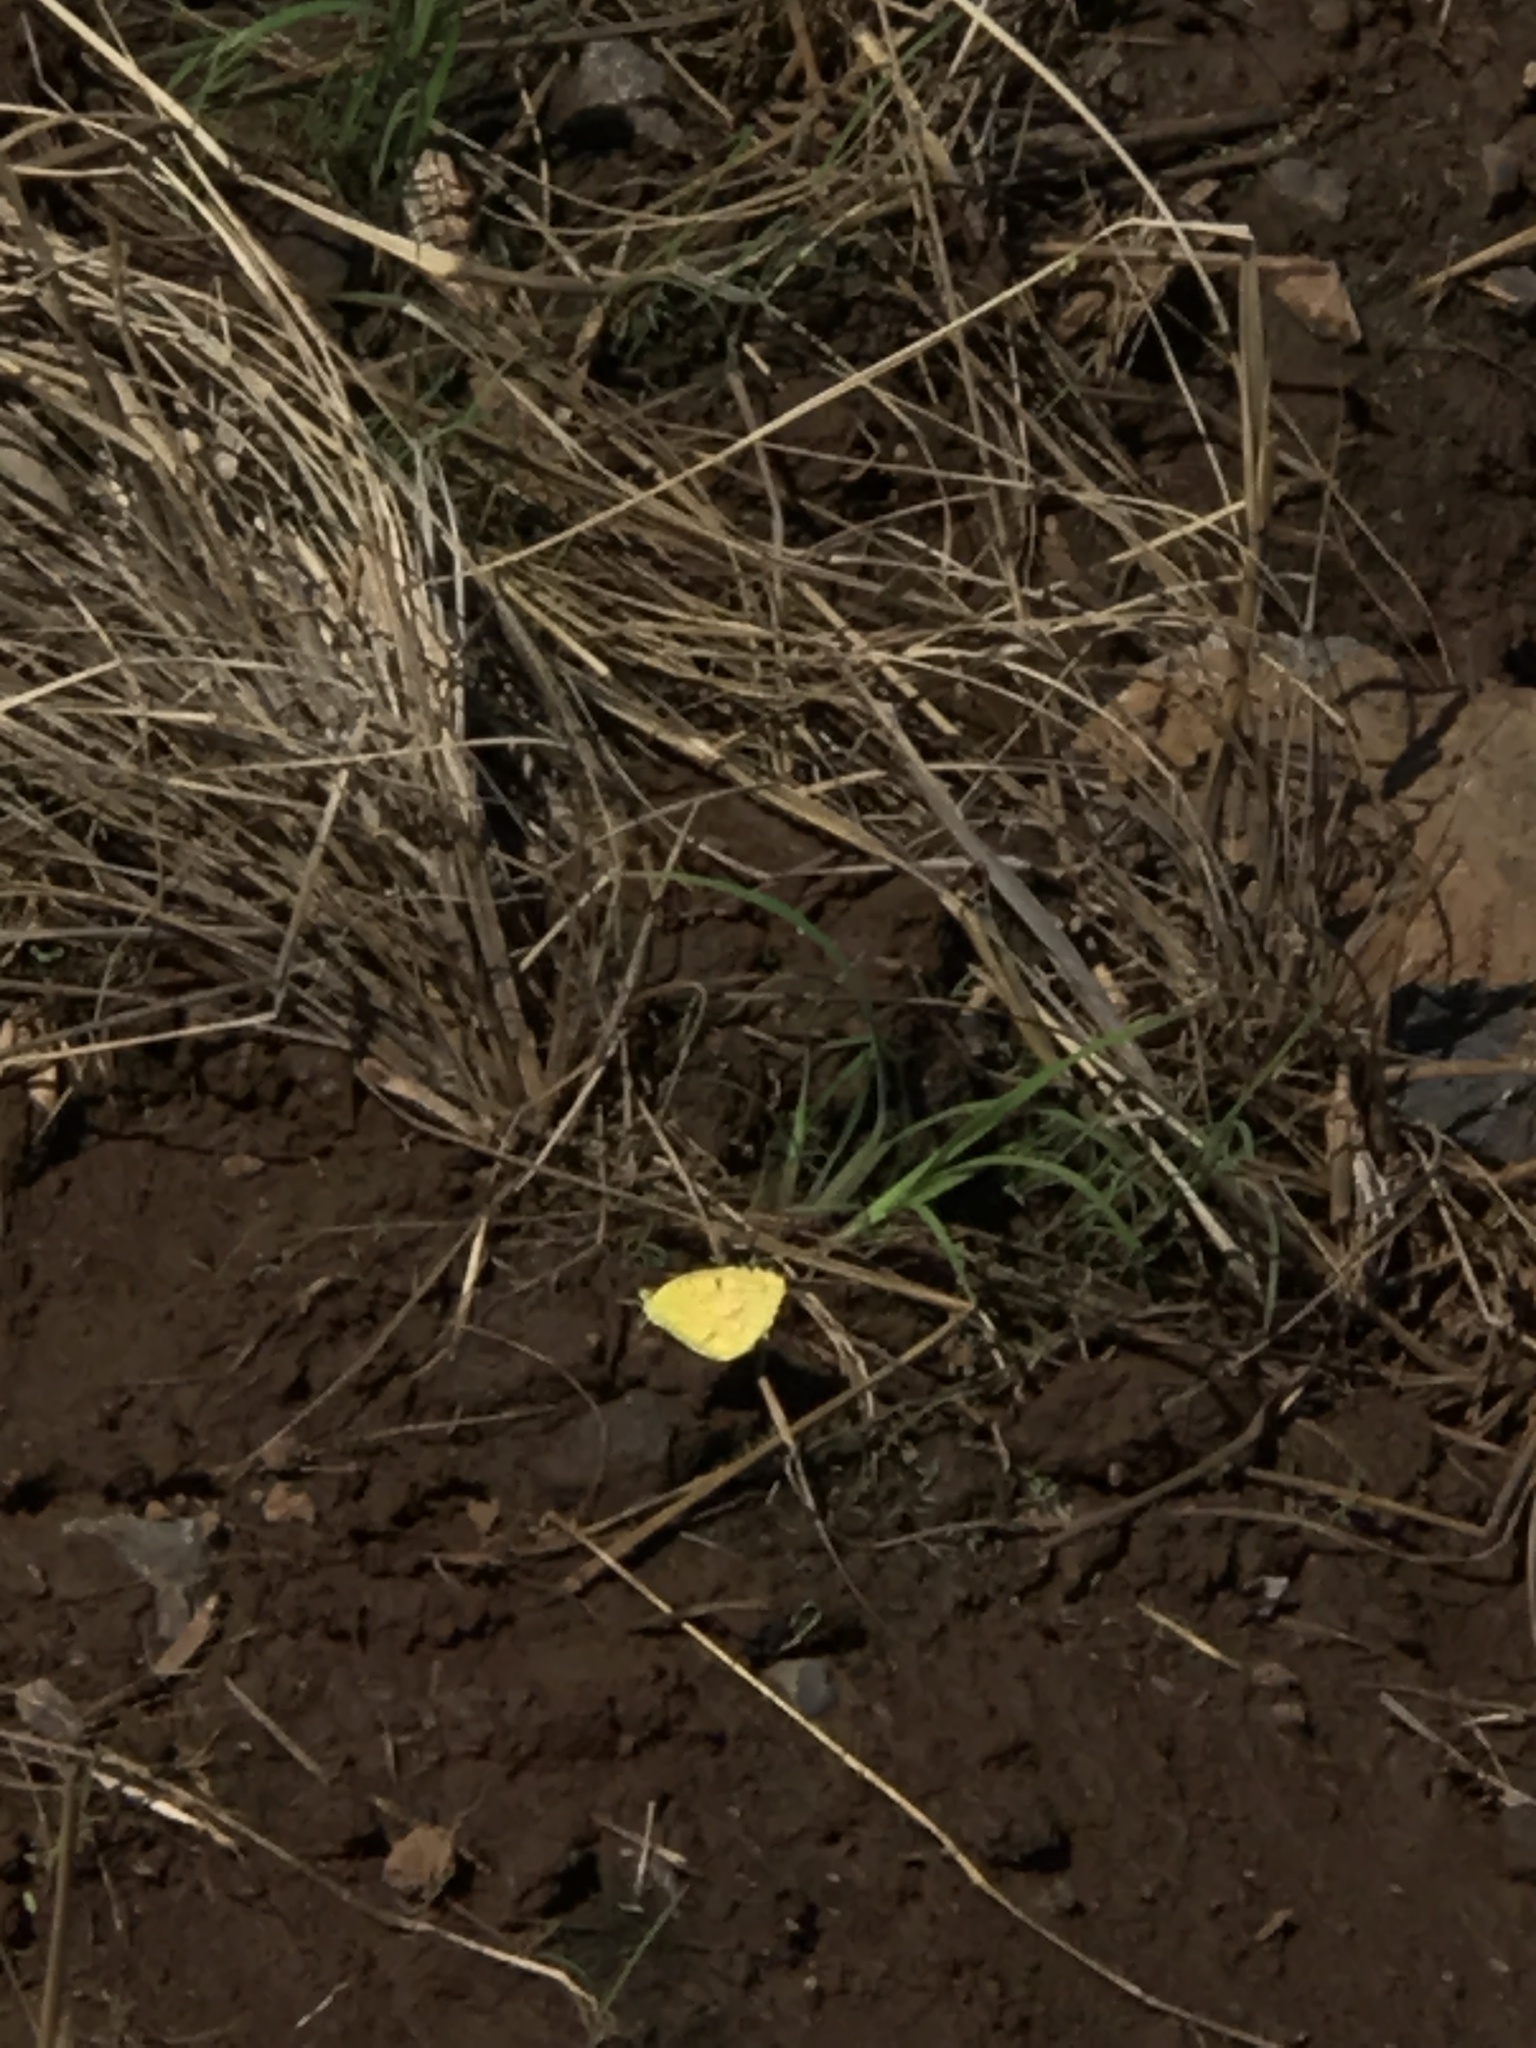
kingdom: Animalia
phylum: Arthropoda
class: Insecta
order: Lepidoptera
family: Pieridae
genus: Abaeis
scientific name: Abaeis nicippe
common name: Sleepy orange
